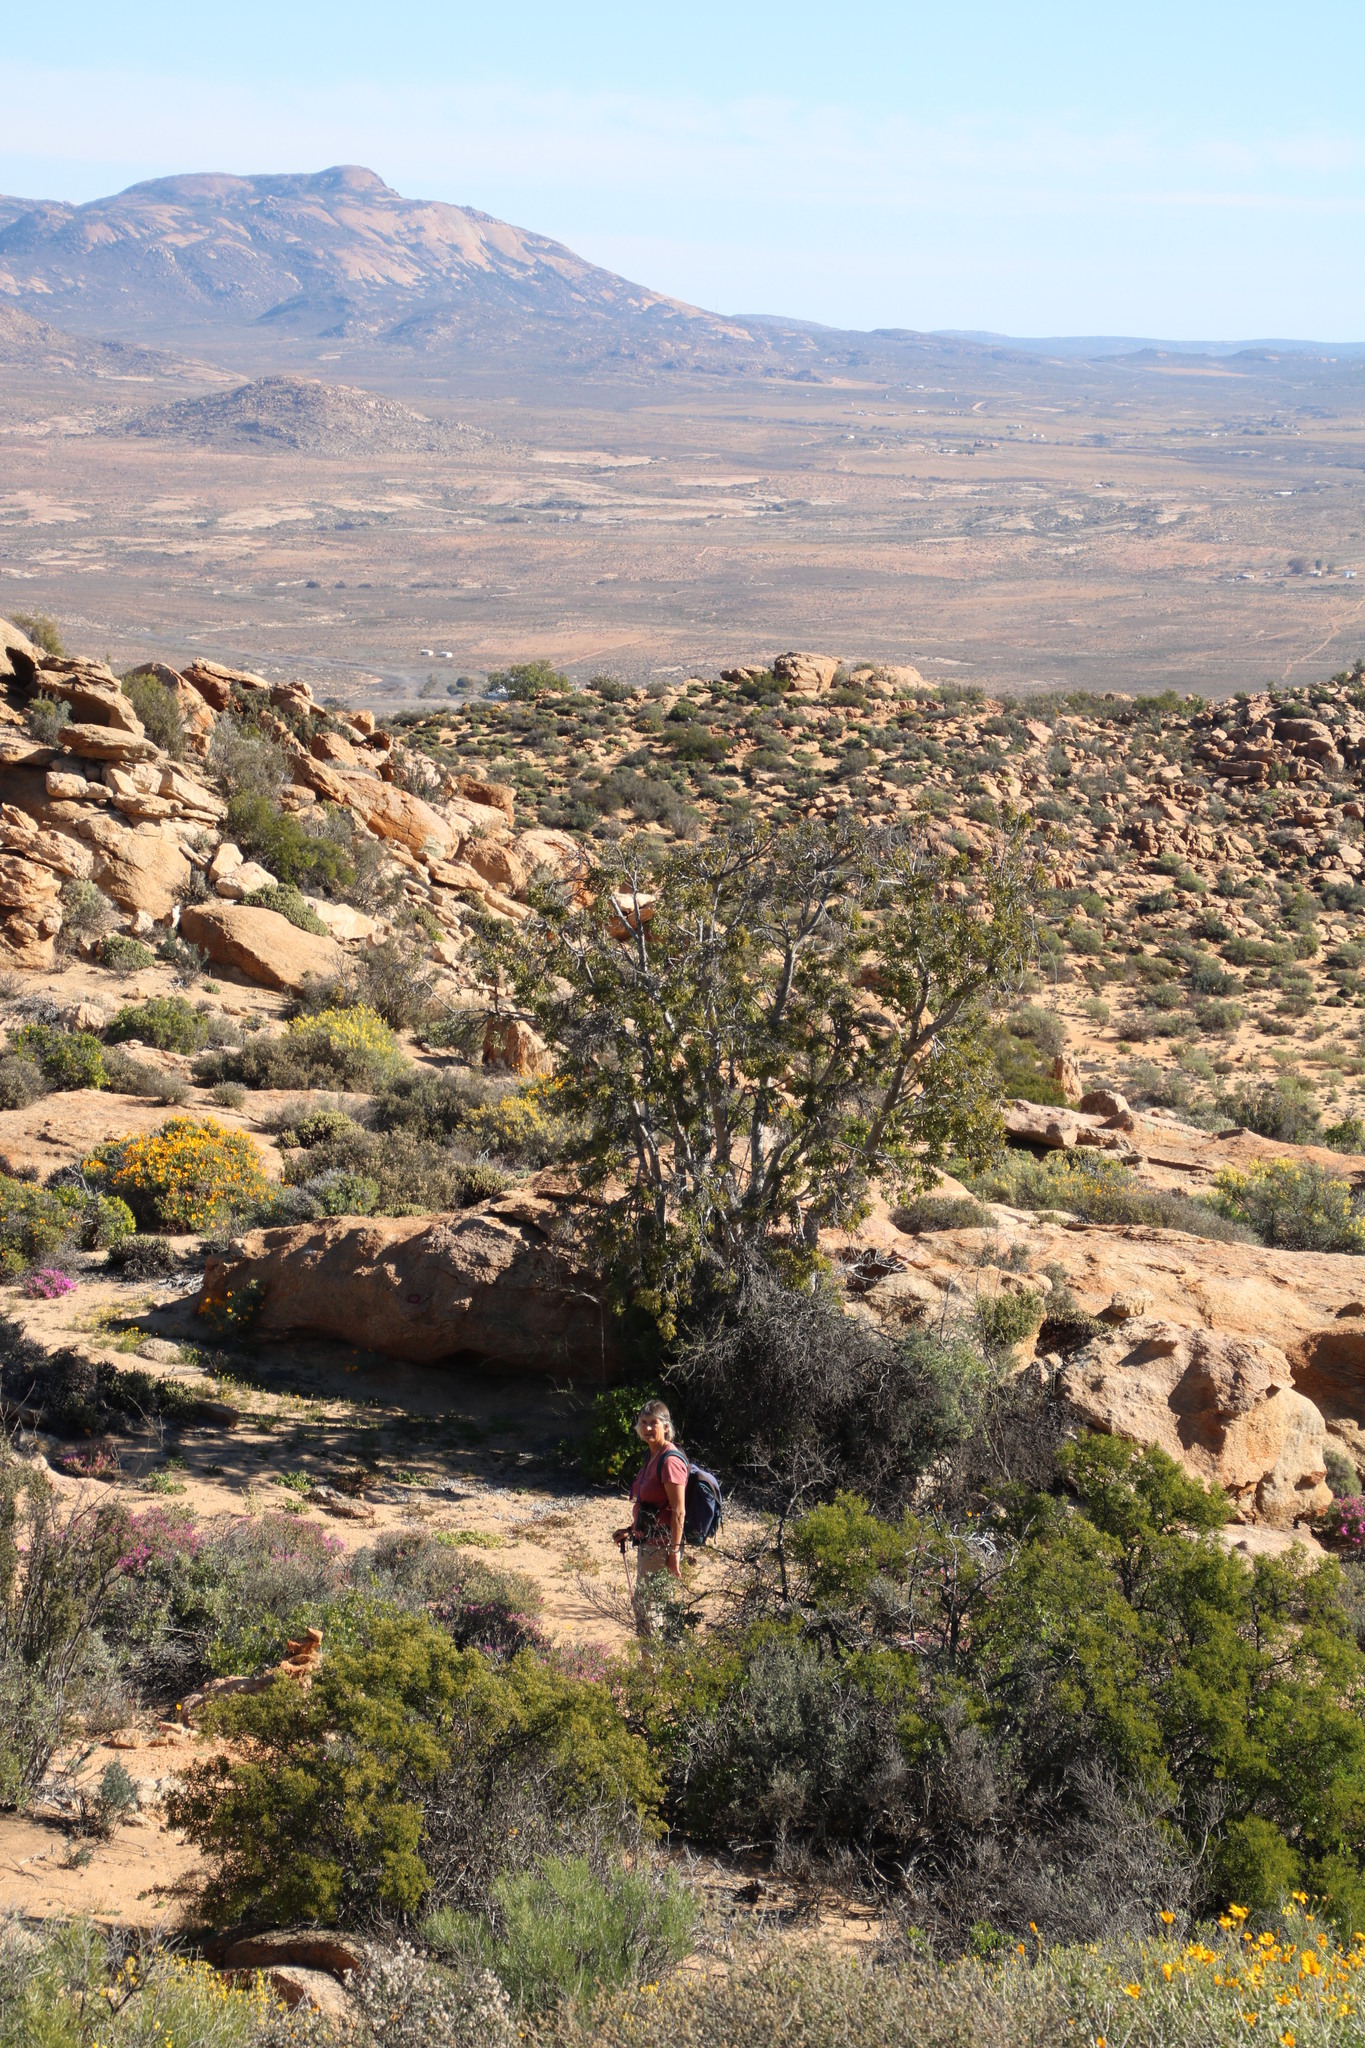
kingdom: Plantae
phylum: Tracheophyta
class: Magnoliopsida
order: Rosales
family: Moraceae
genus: Ficus
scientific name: Ficus cordata
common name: Namaqua rock fig
